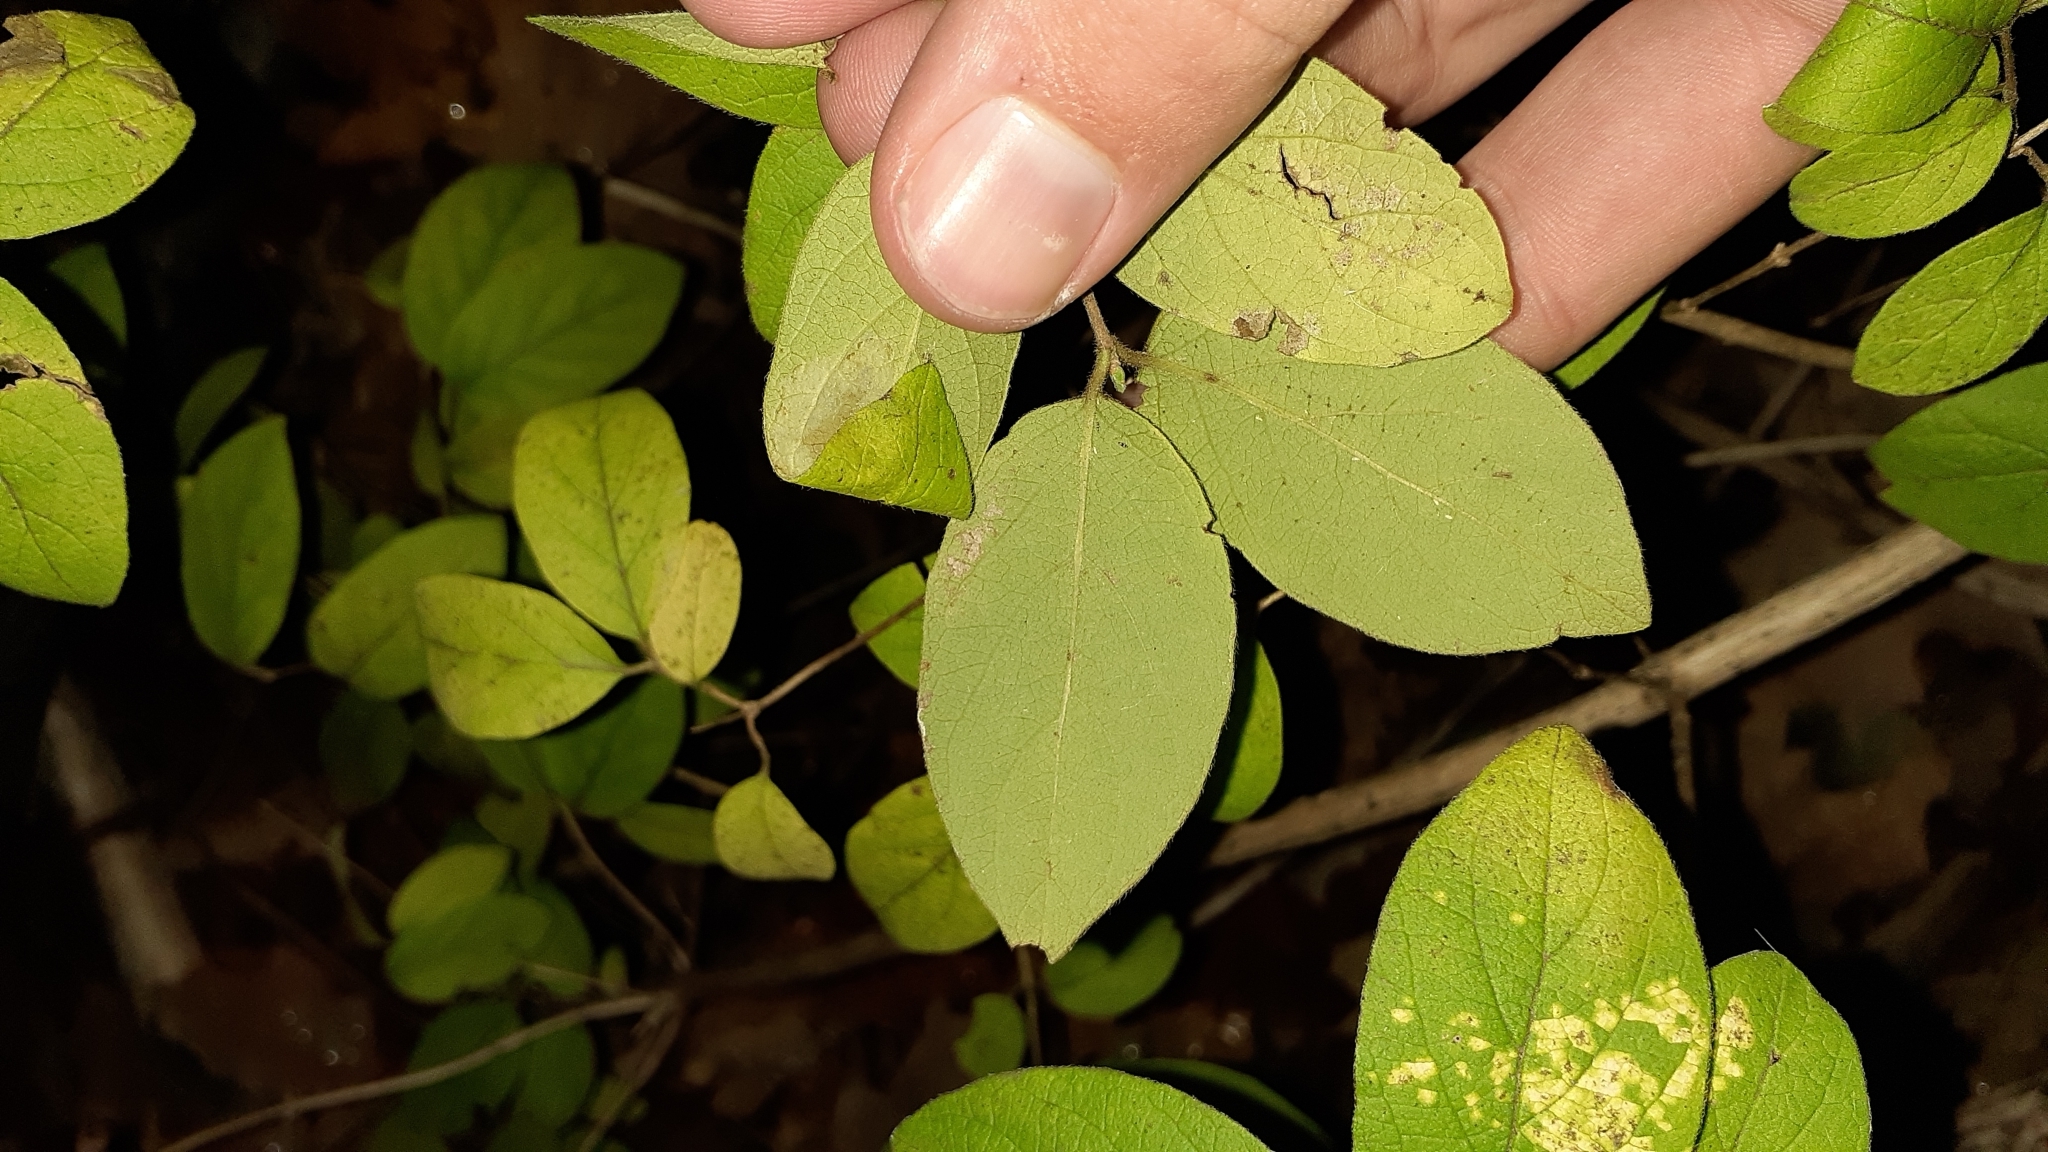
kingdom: Plantae
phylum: Tracheophyta
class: Magnoliopsida
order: Dipsacales
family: Caprifoliaceae
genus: Lonicera
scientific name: Lonicera xylosteoides
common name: Fly honeysuckle
